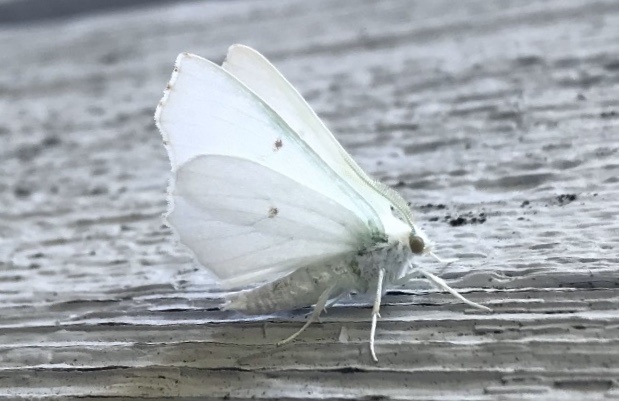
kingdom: Animalia
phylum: Arthropoda
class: Insecta
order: Lepidoptera
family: Geometridae
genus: Ennomos
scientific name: Ennomos subsignaria
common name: Elm spanworm
